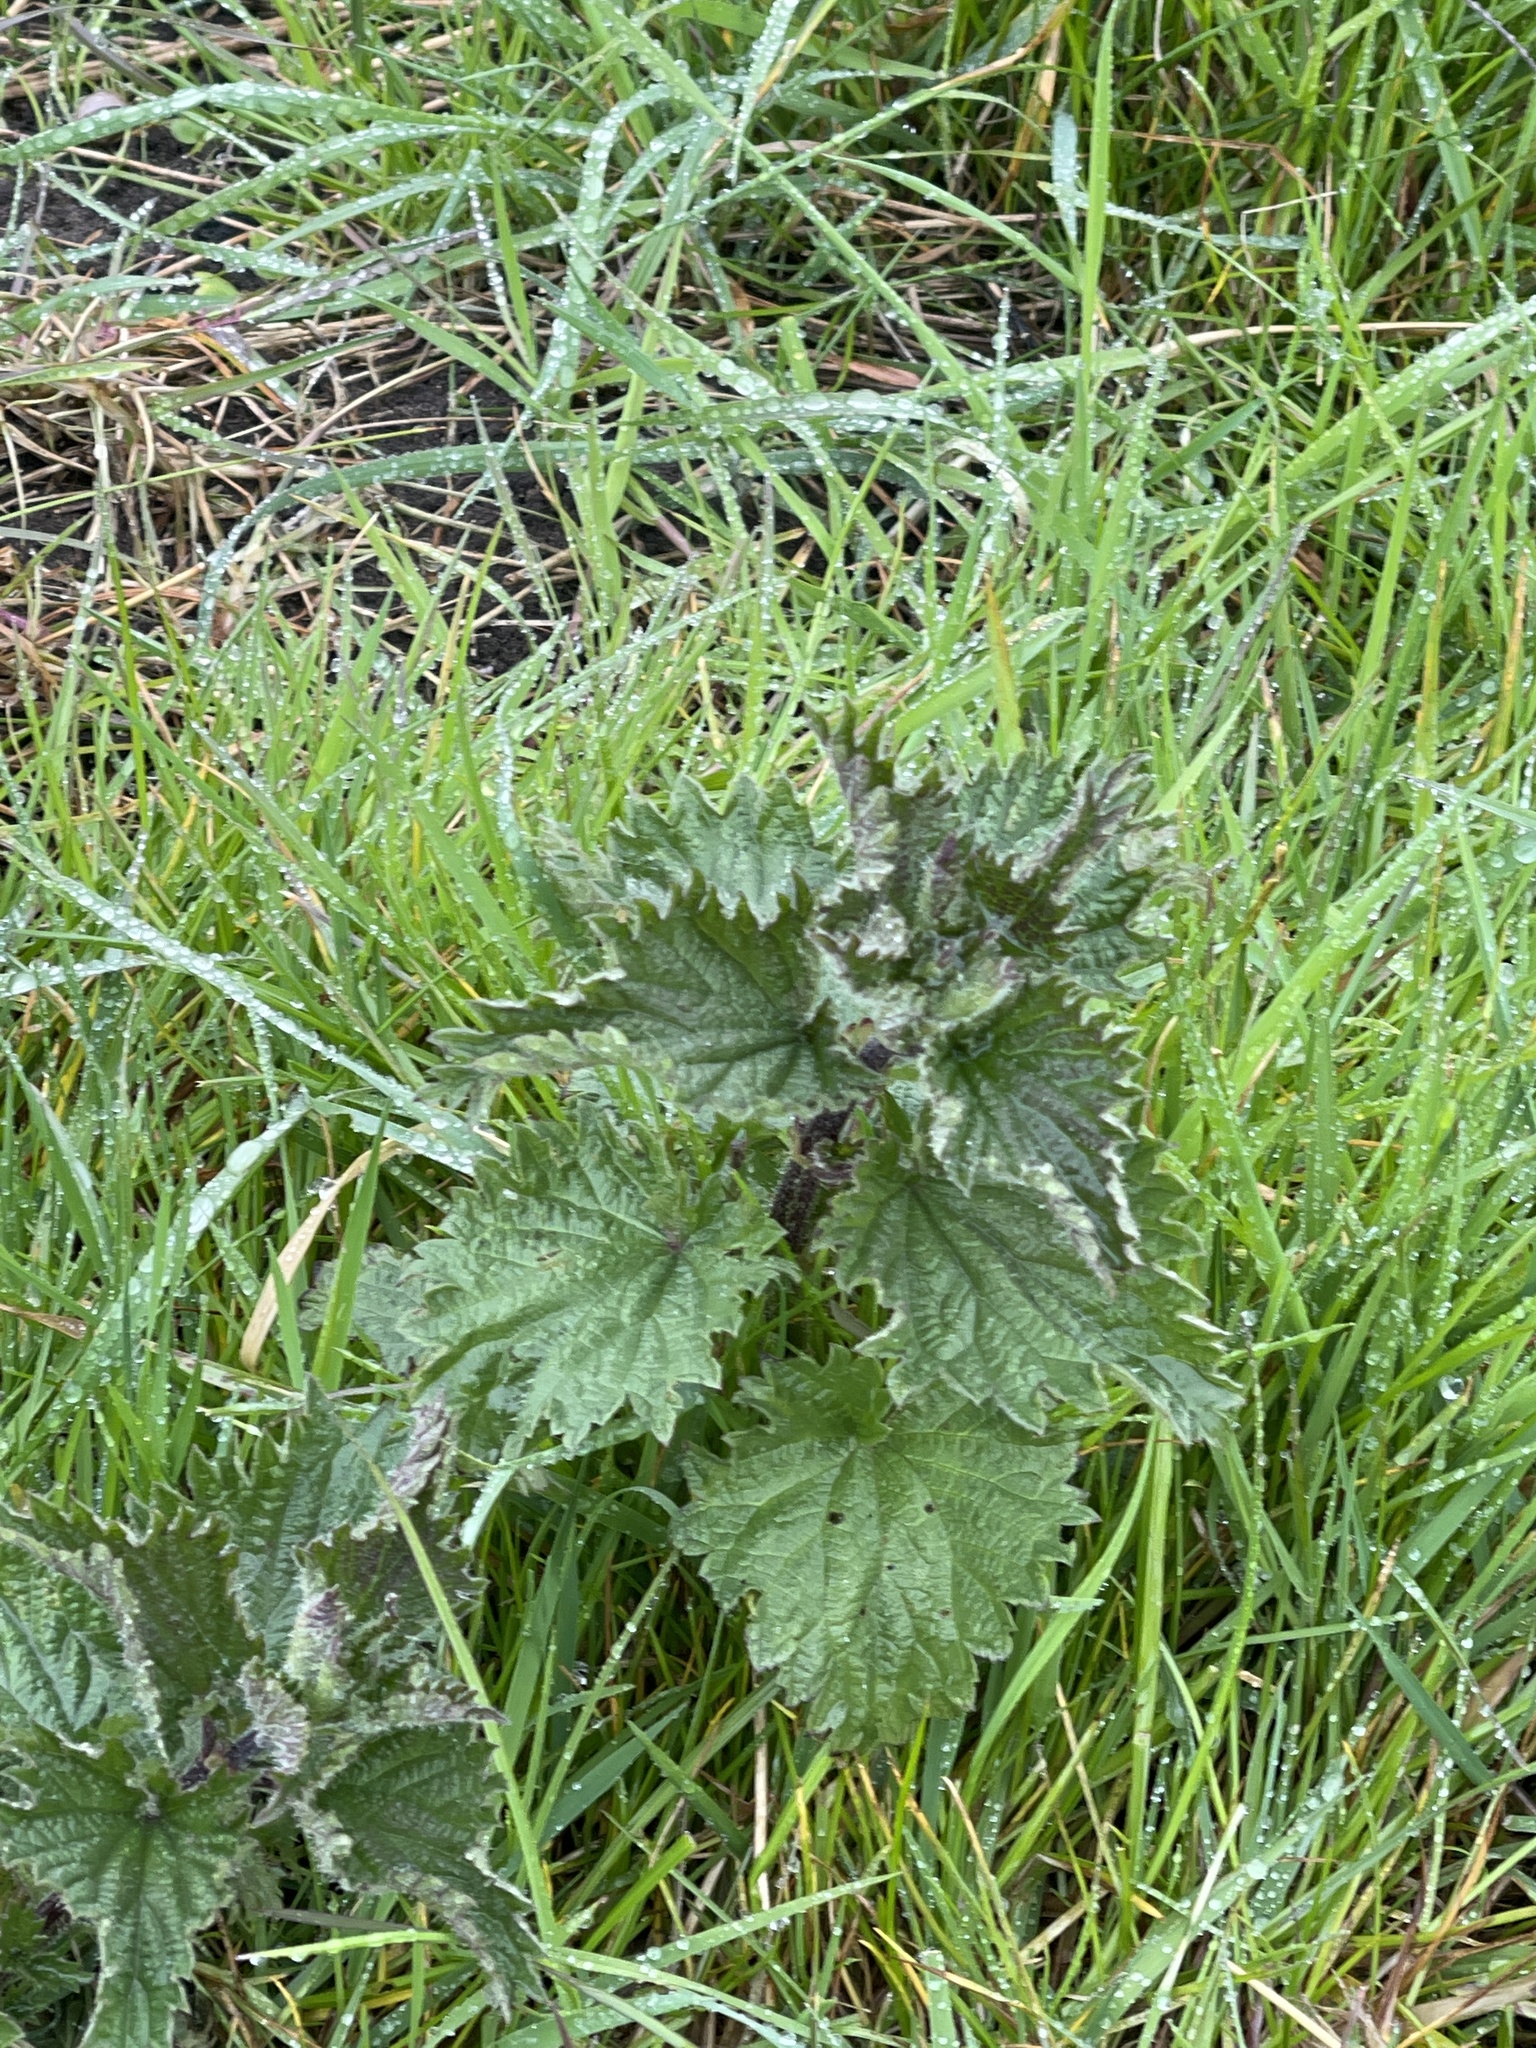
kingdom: Plantae
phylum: Tracheophyta
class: Magnoliopsida
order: Rosales
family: Urticaceae
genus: Urtica
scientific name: Urtica dioica
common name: Common nettle
